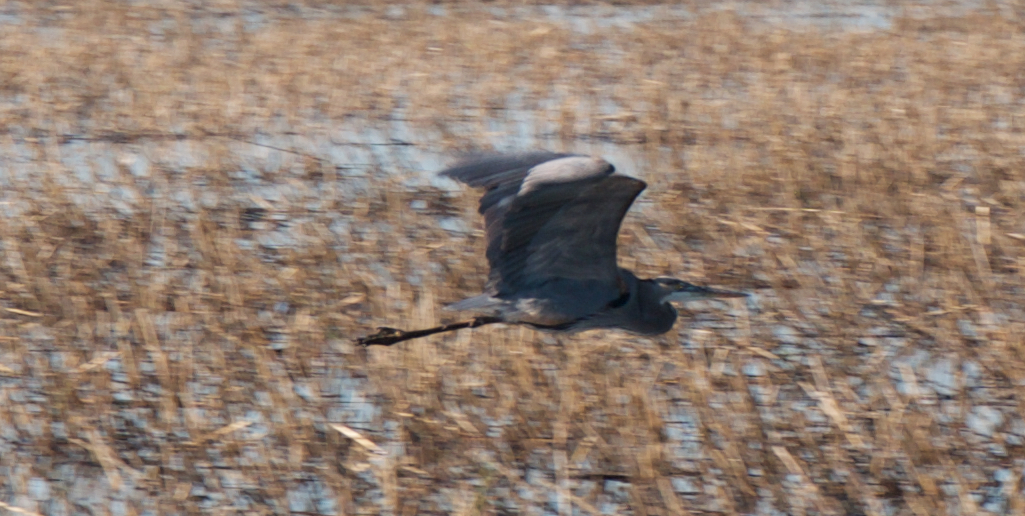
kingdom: Animalia
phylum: Chordata
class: Aves
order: Pelecaniformes
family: Ardeidae
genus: Ardea
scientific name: Ardea herodias
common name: Great blue heron
